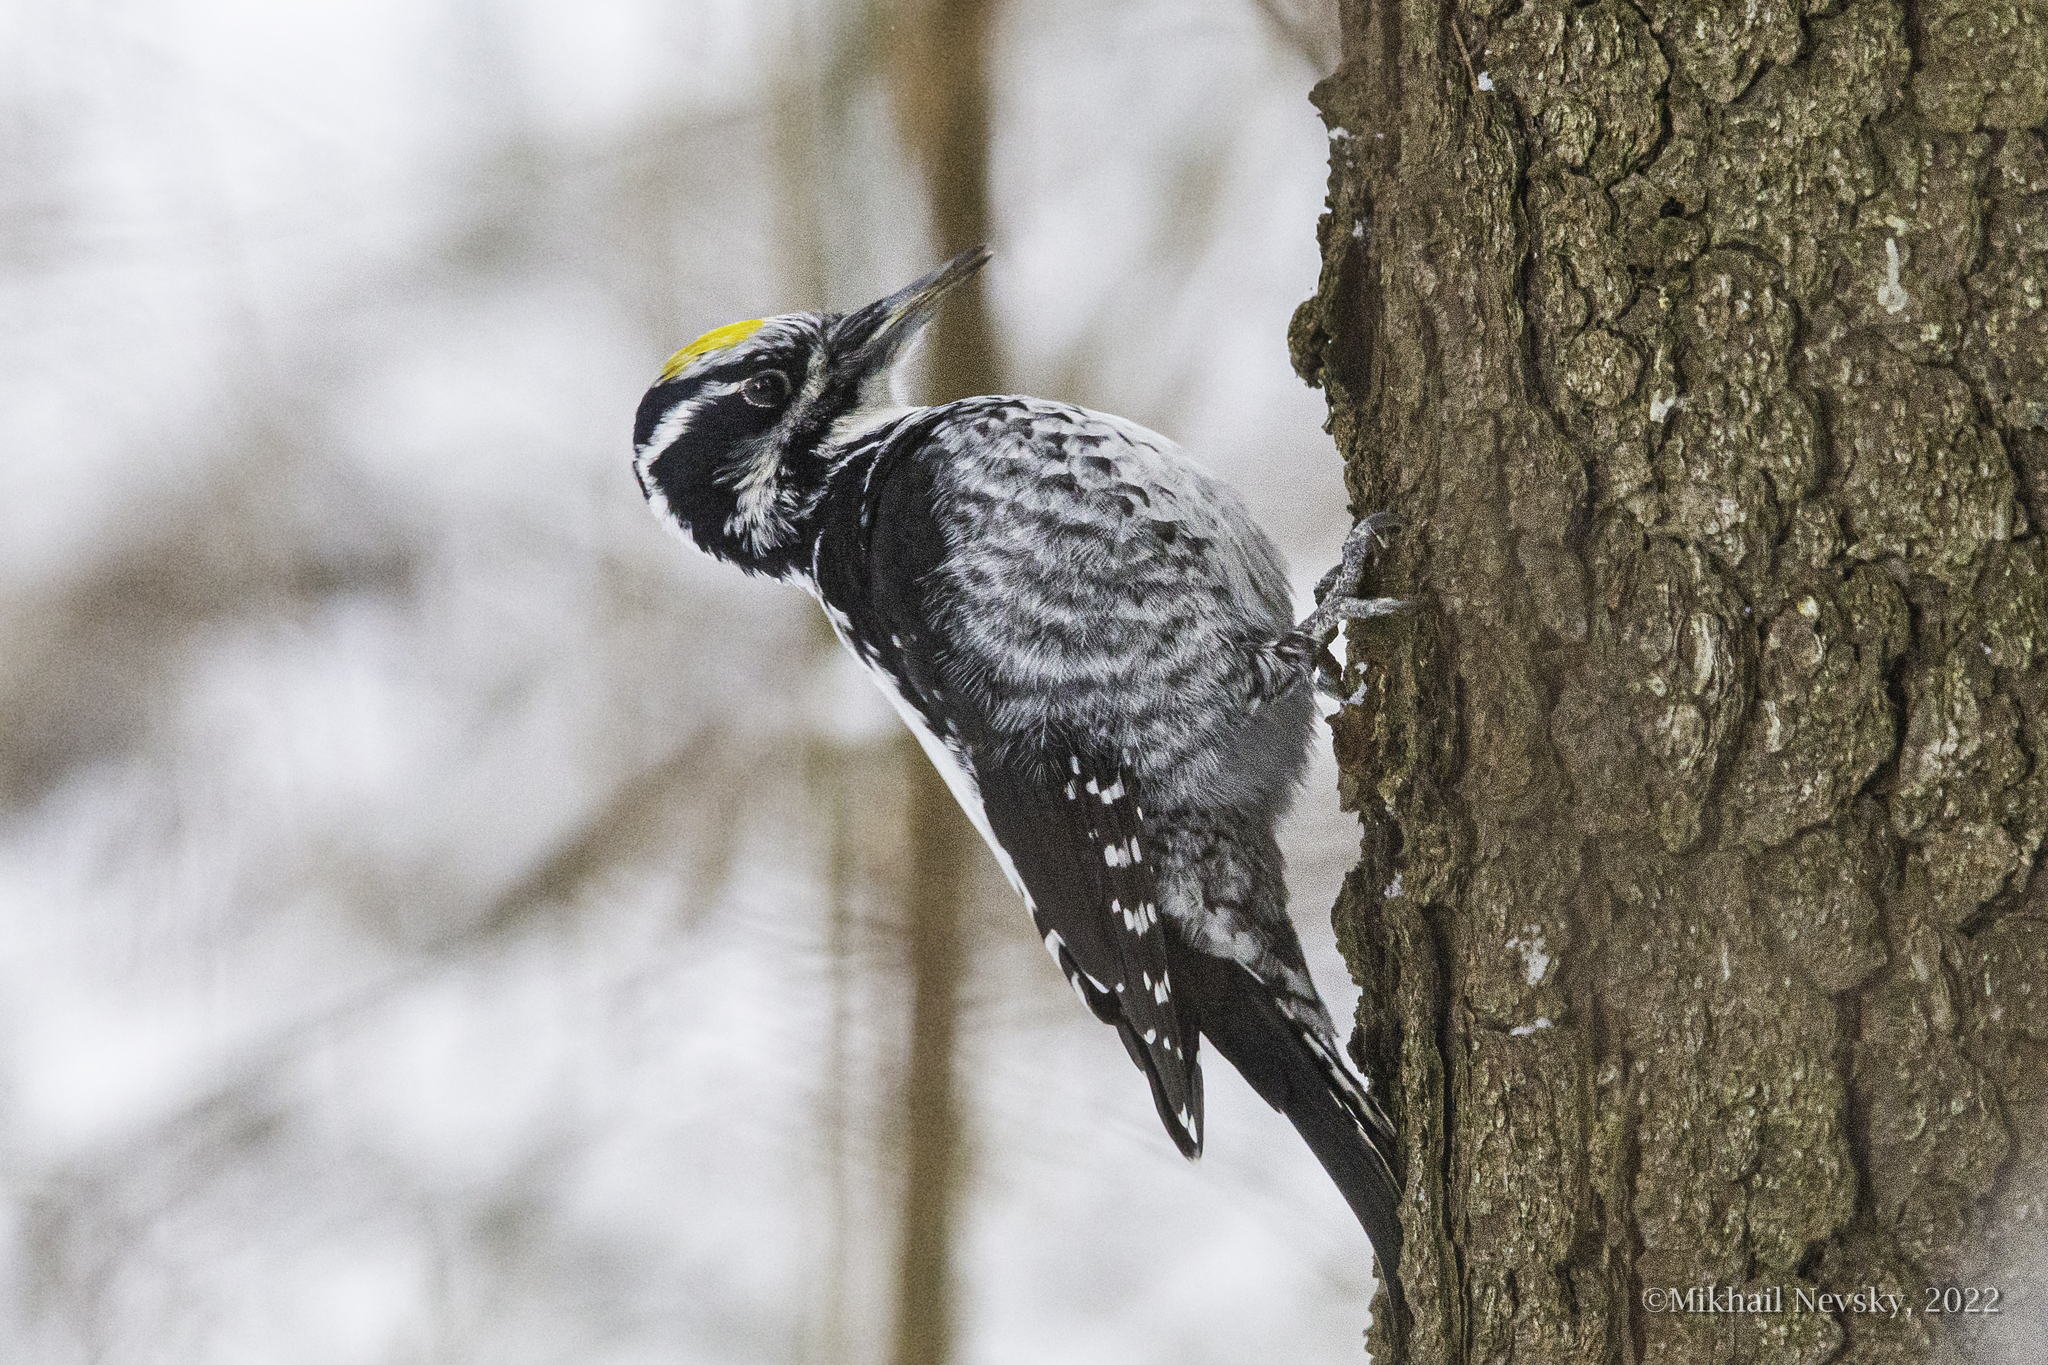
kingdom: Animalia
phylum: Chordata
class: Aves
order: Piciformes
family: Picidae
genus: Picoides
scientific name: Picoides tridactylus
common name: Eurasian three-toed woodpecker
